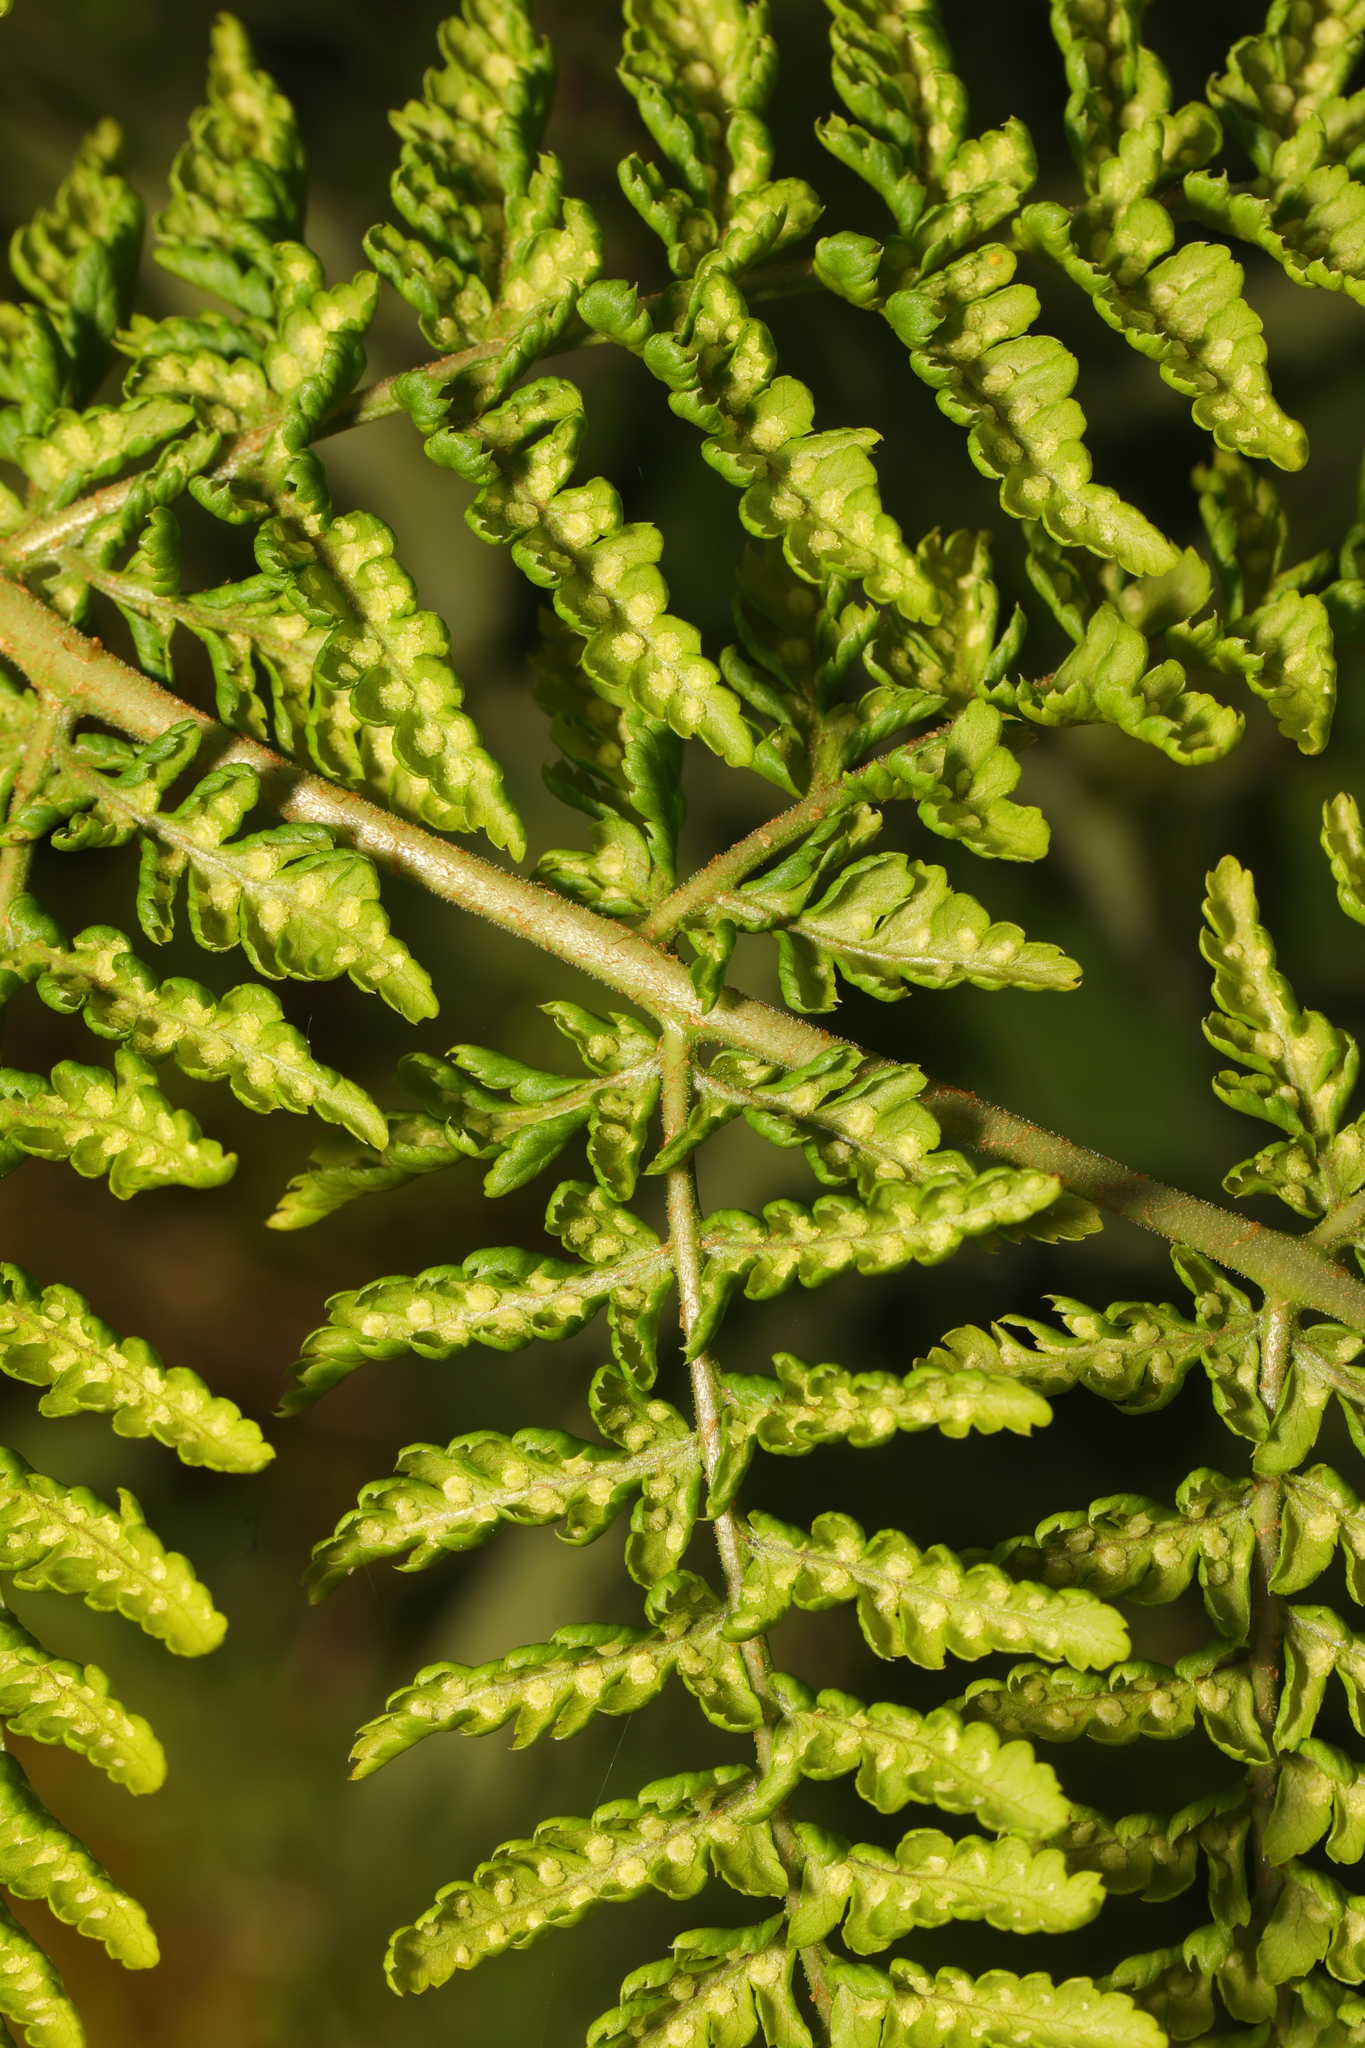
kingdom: Plantae
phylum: Tracheophyta
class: Polypodiopsida
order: Polypodiales
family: Dryopteridaceae
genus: Dryopteris
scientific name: Dryopteris dilatata
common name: Broad buckler-fern
